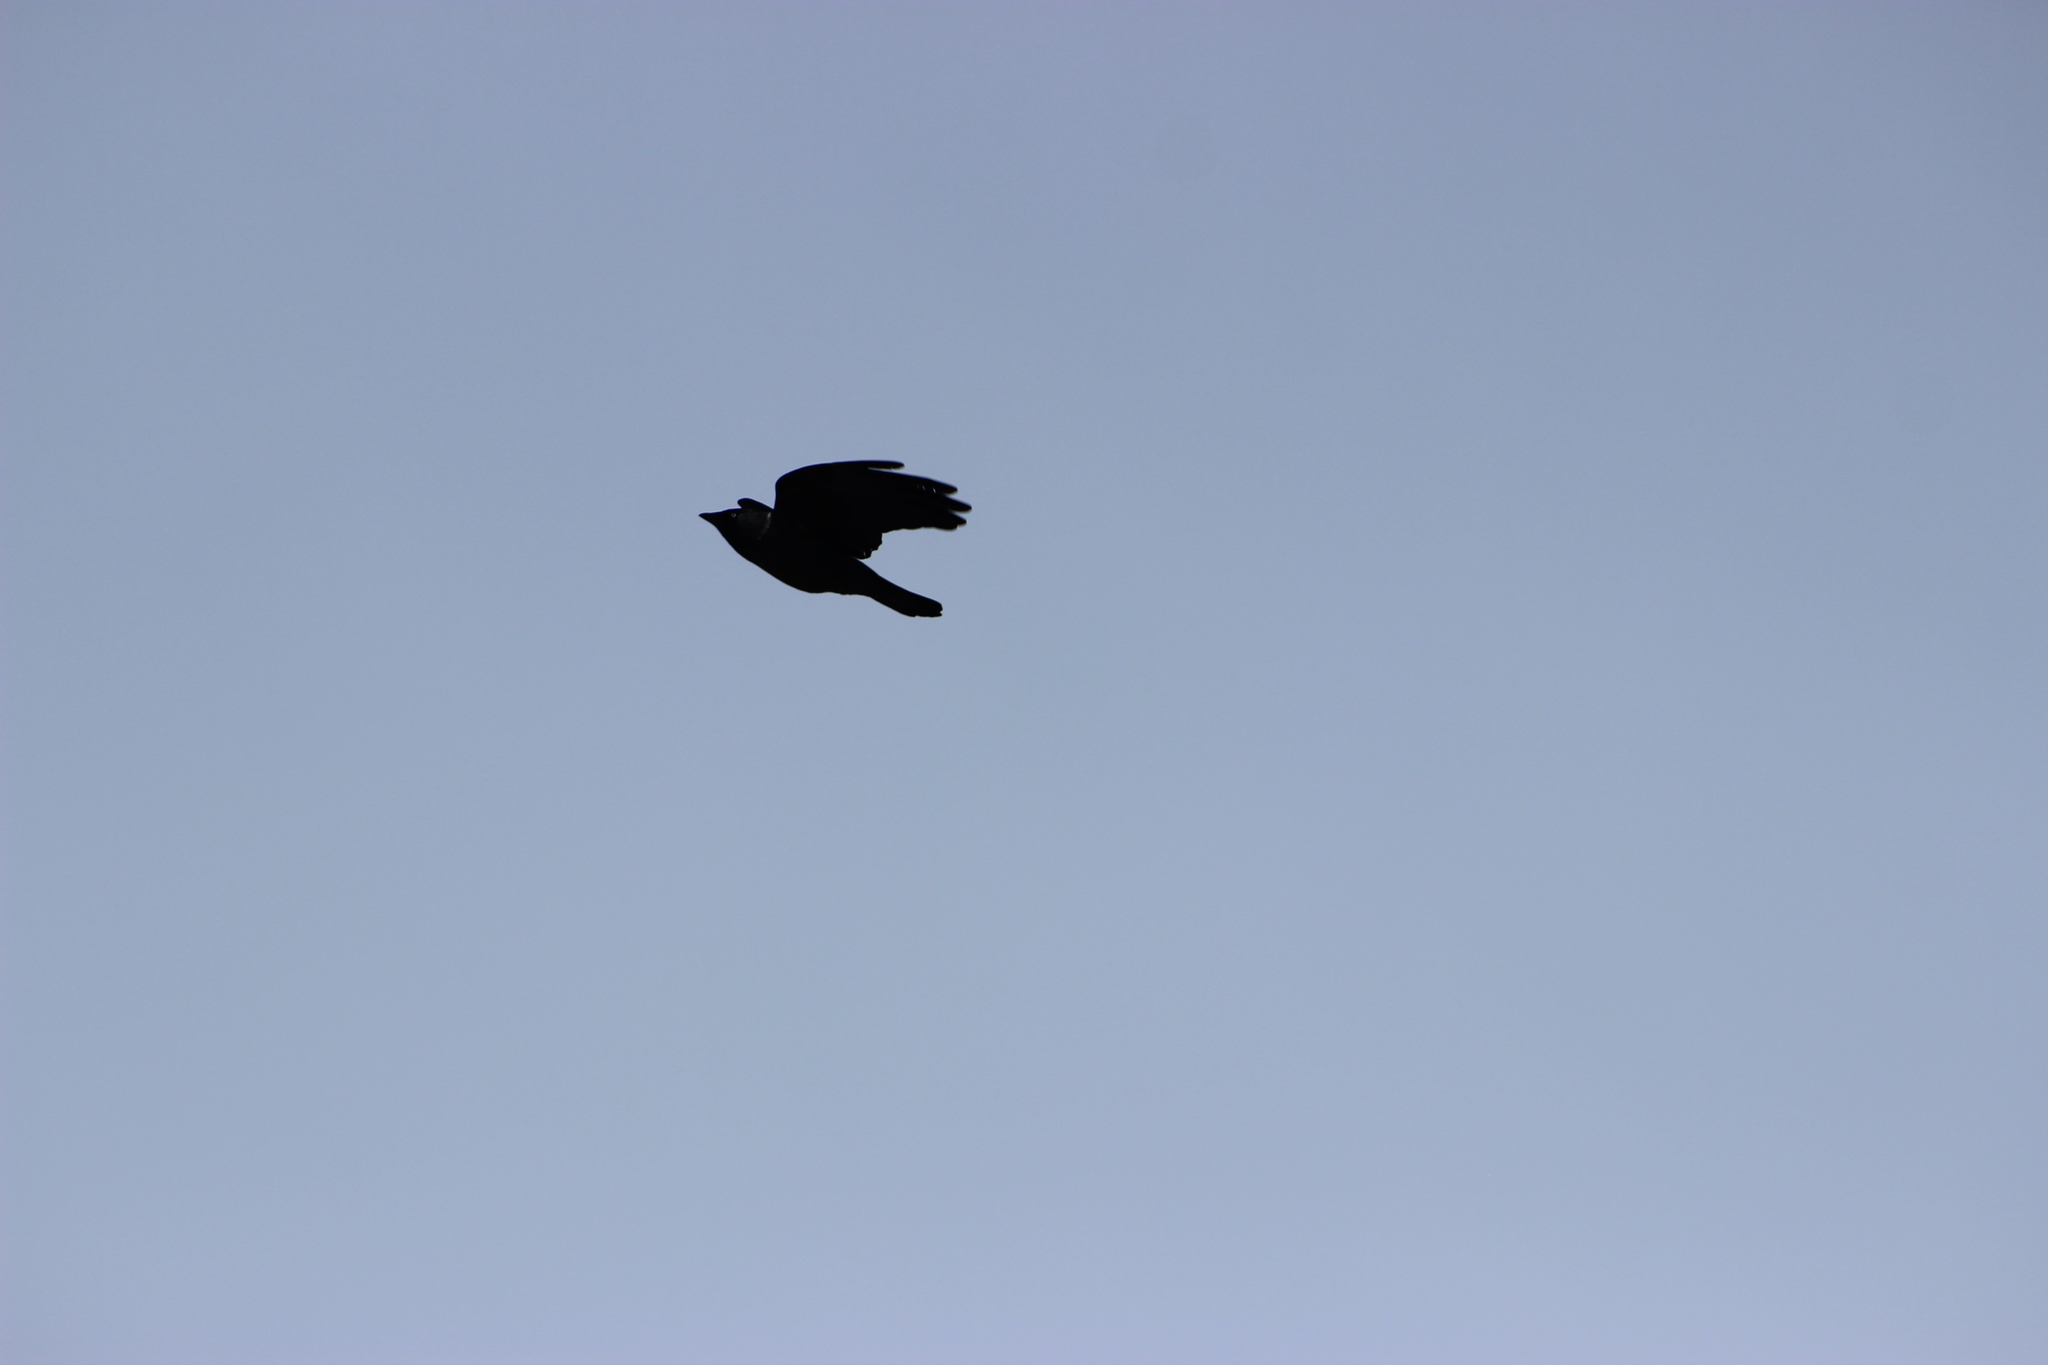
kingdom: Animalia
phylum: Chordata
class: Aves
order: Passeriformes
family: Corvidae
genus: Coloeus
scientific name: Coloeus monedula
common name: Western jackdaw
